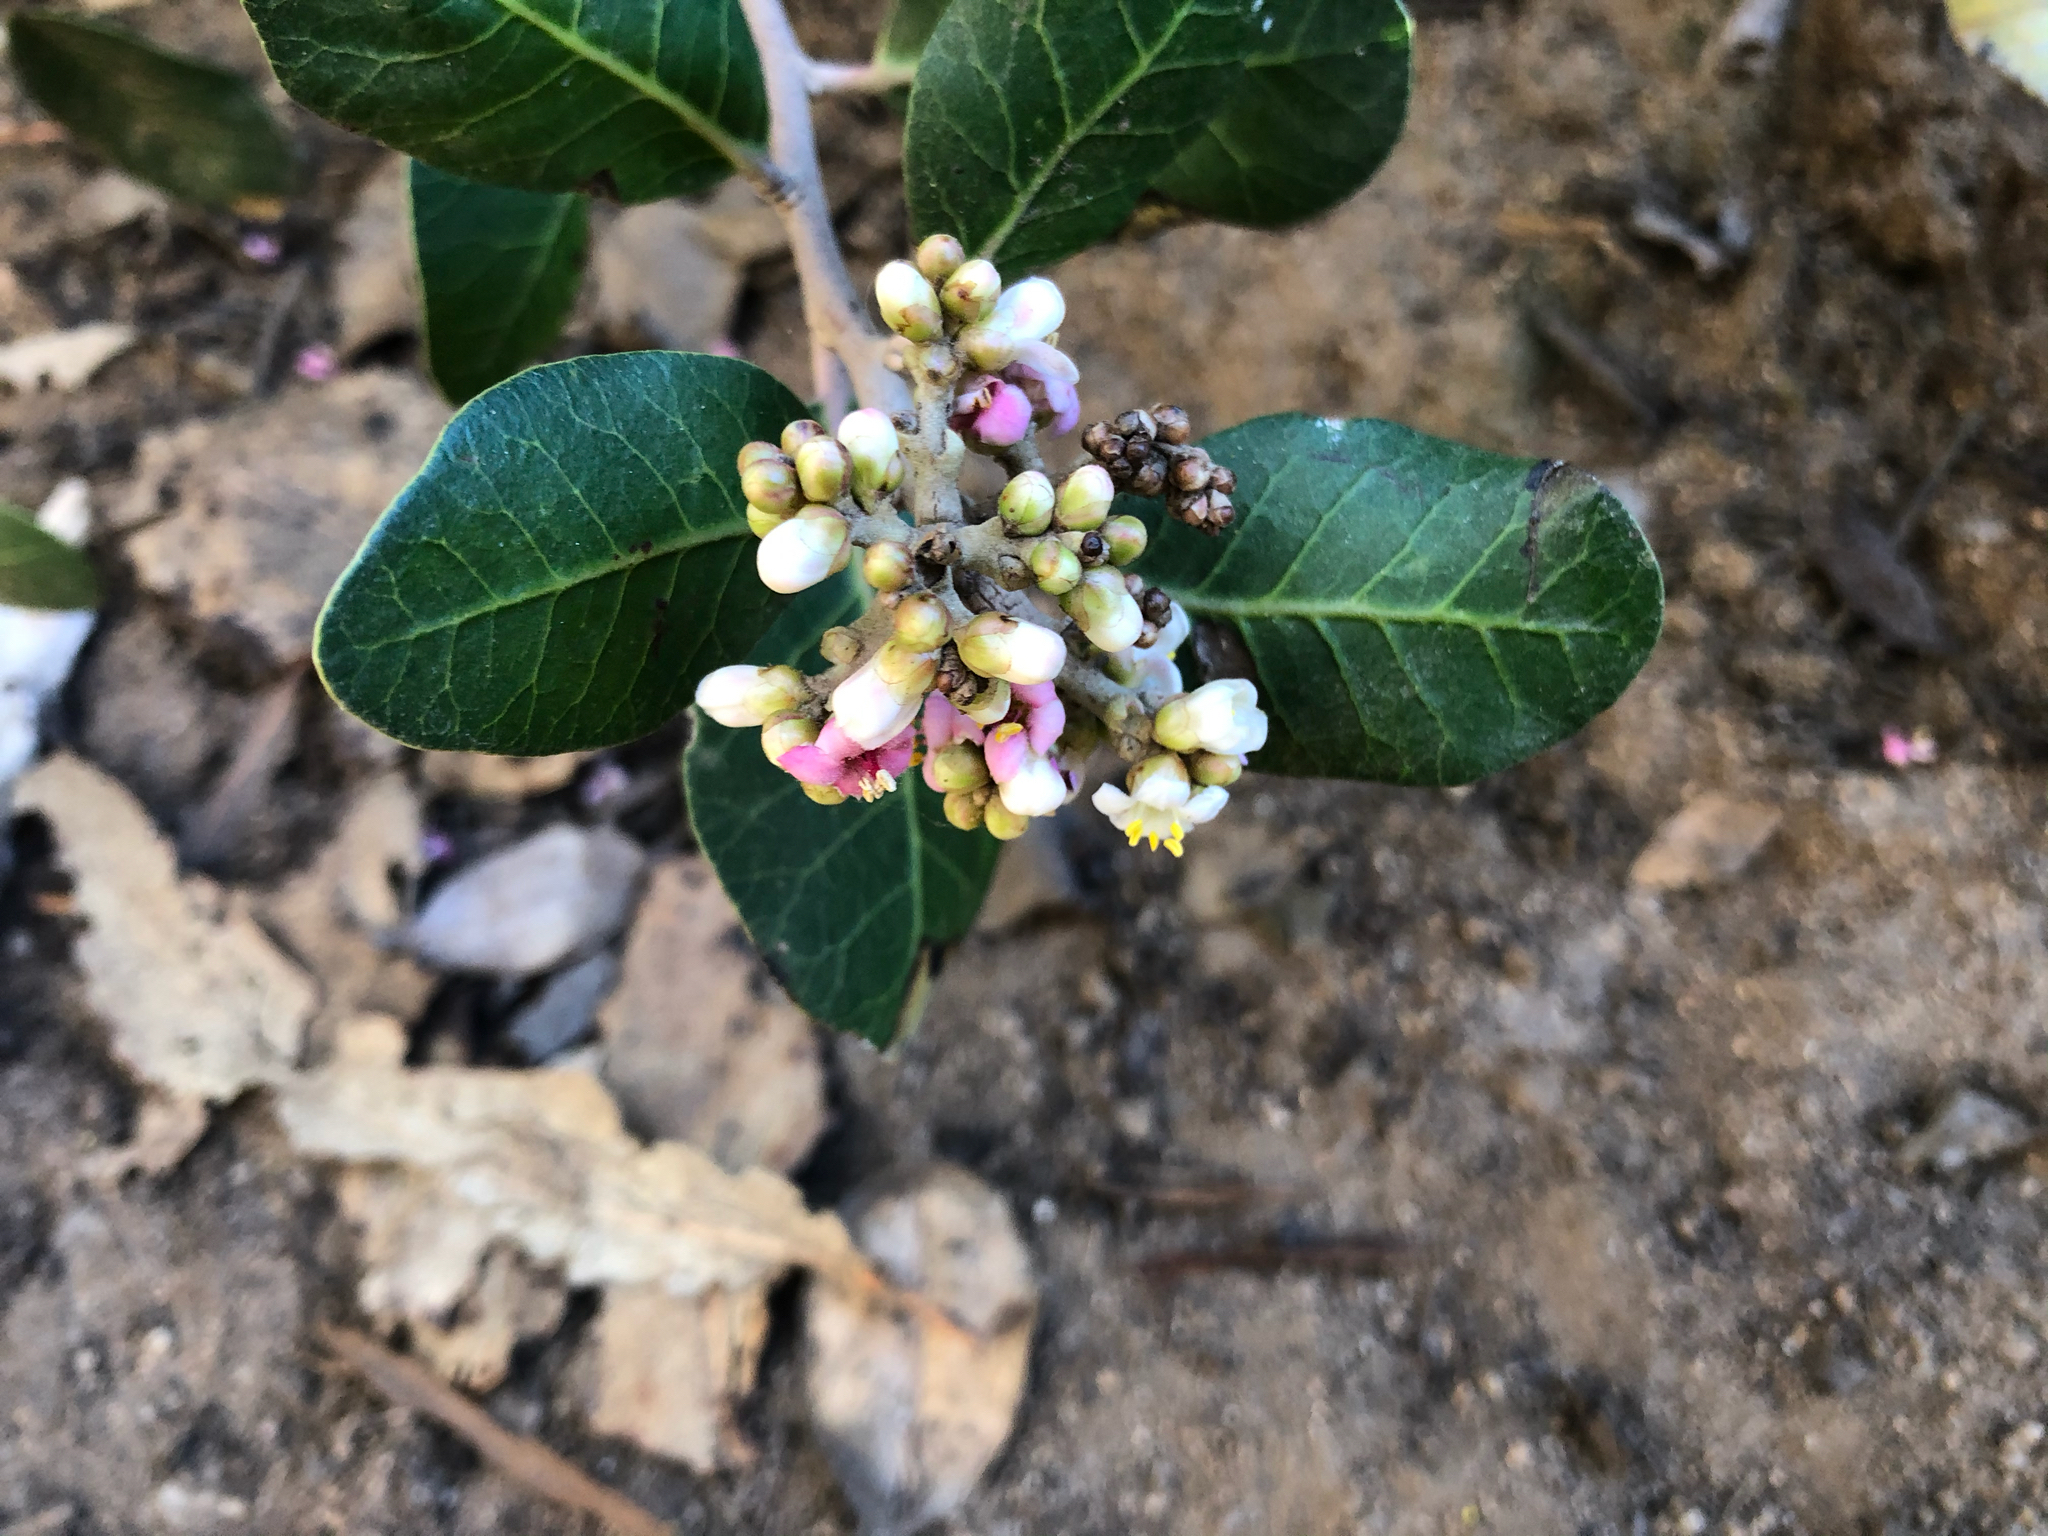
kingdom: Plantae
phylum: Tracheophyta
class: Magnoliopsida
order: Sapindales
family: Anacardiaceae
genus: Rhus
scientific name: Rhus integrifolia
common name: Lemonade sumac
